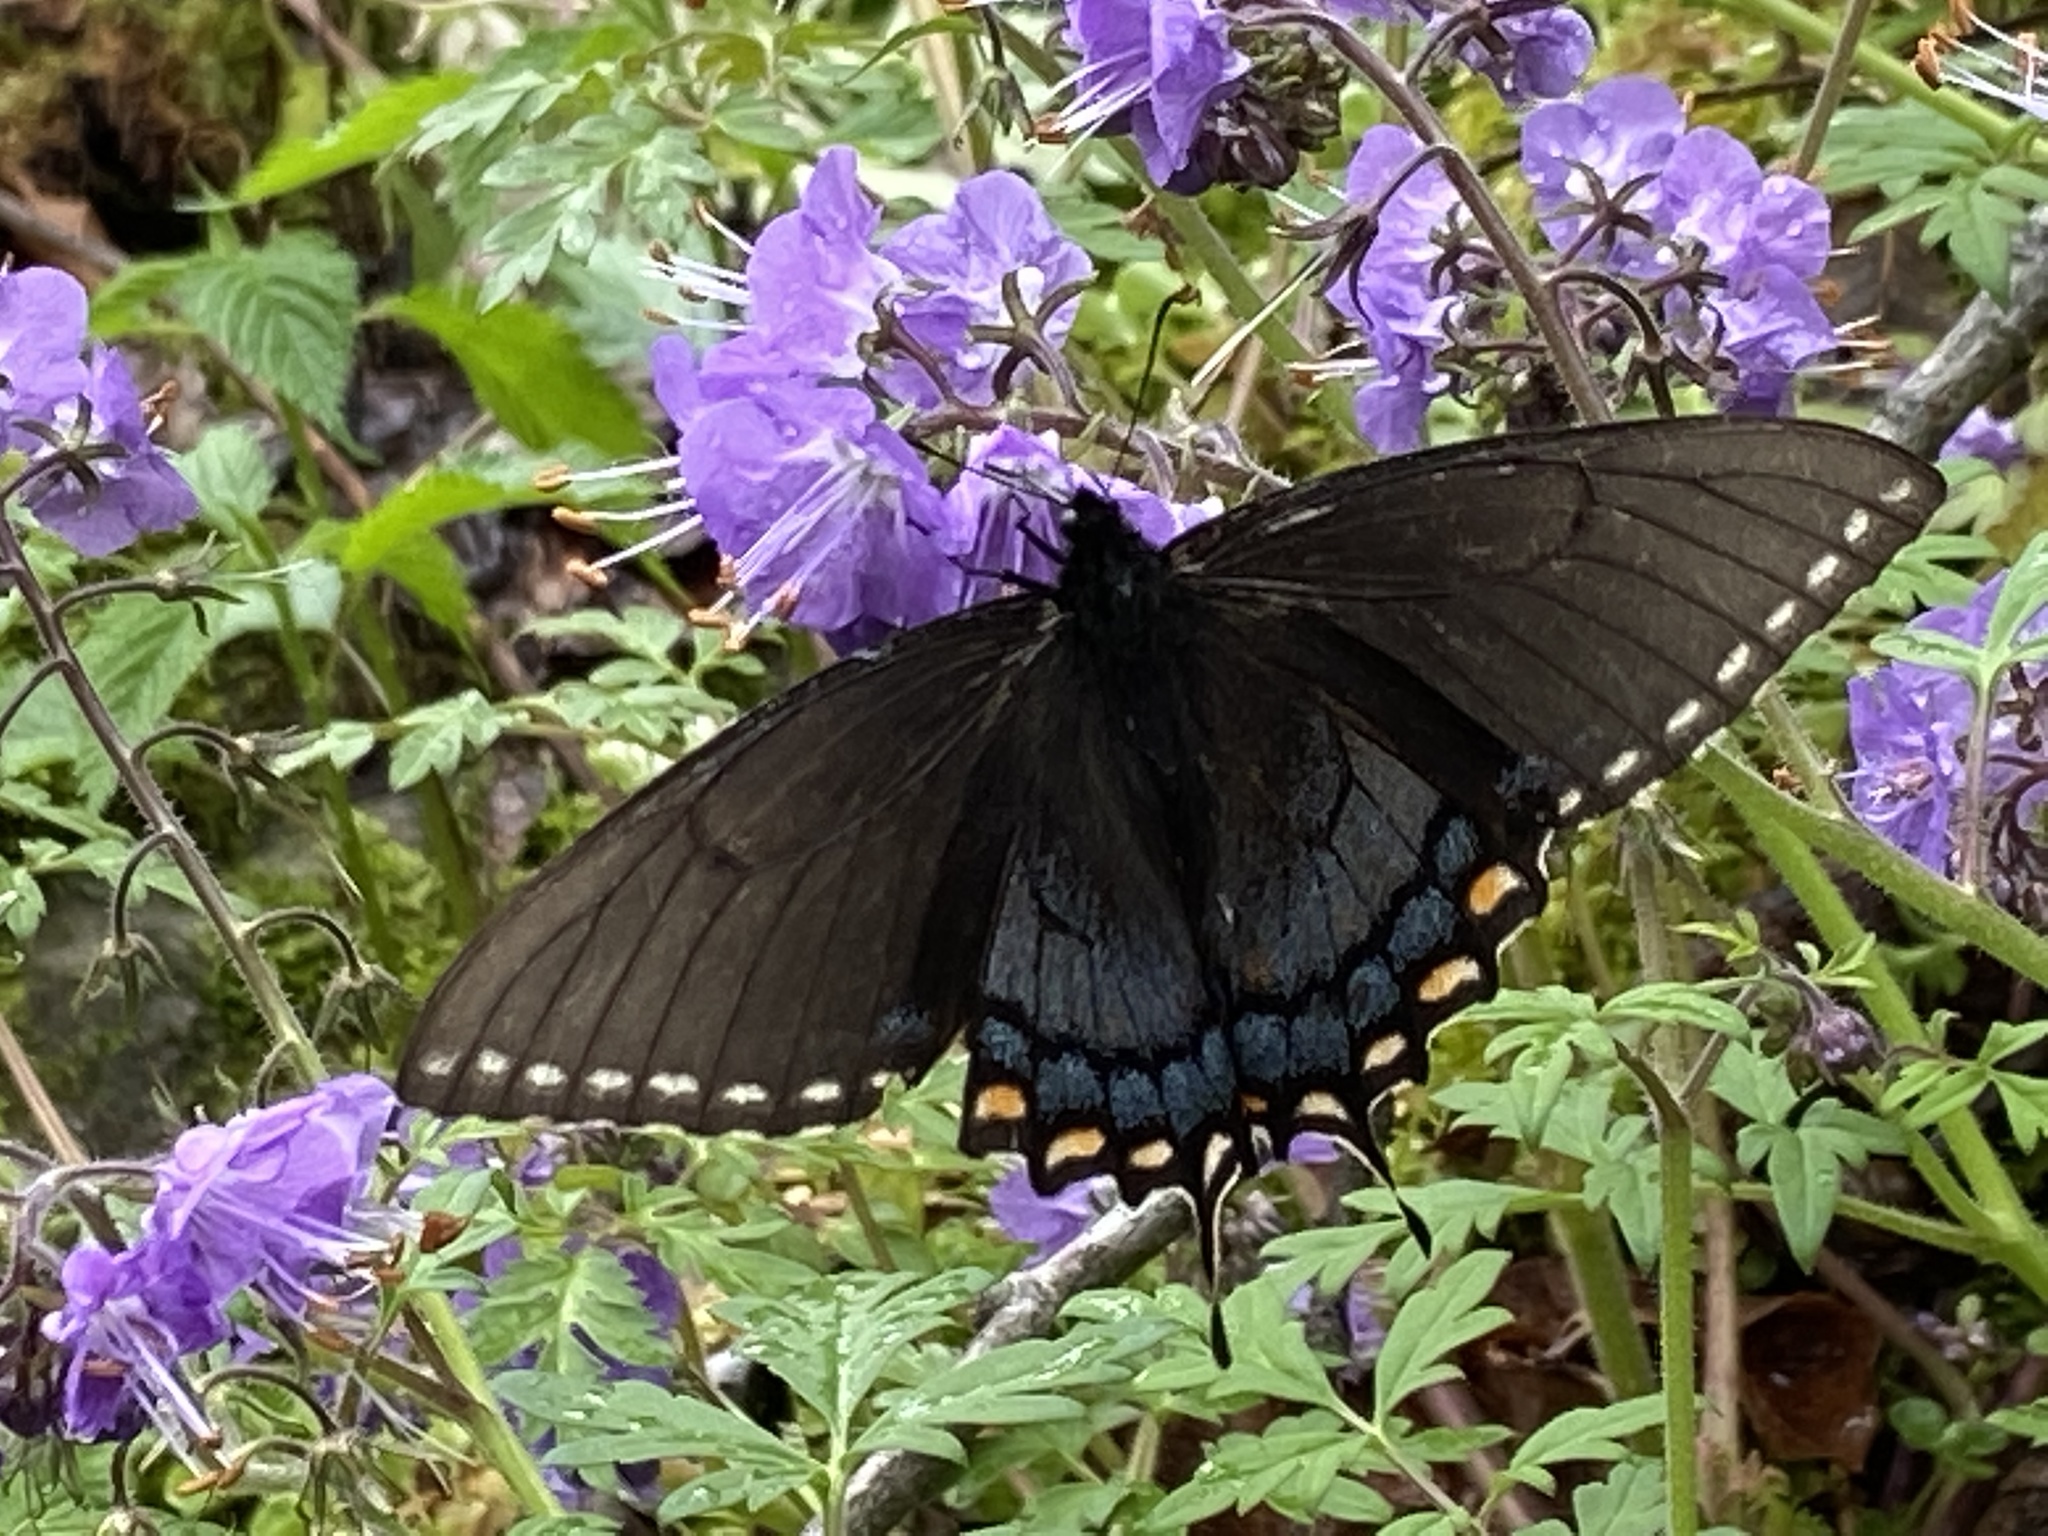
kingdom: Animalia
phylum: Arthropoda
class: Insecta
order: Lepidoptera
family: Papilionidae
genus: Papilio
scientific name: Papilio glaucus
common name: Tiger swallowtail
